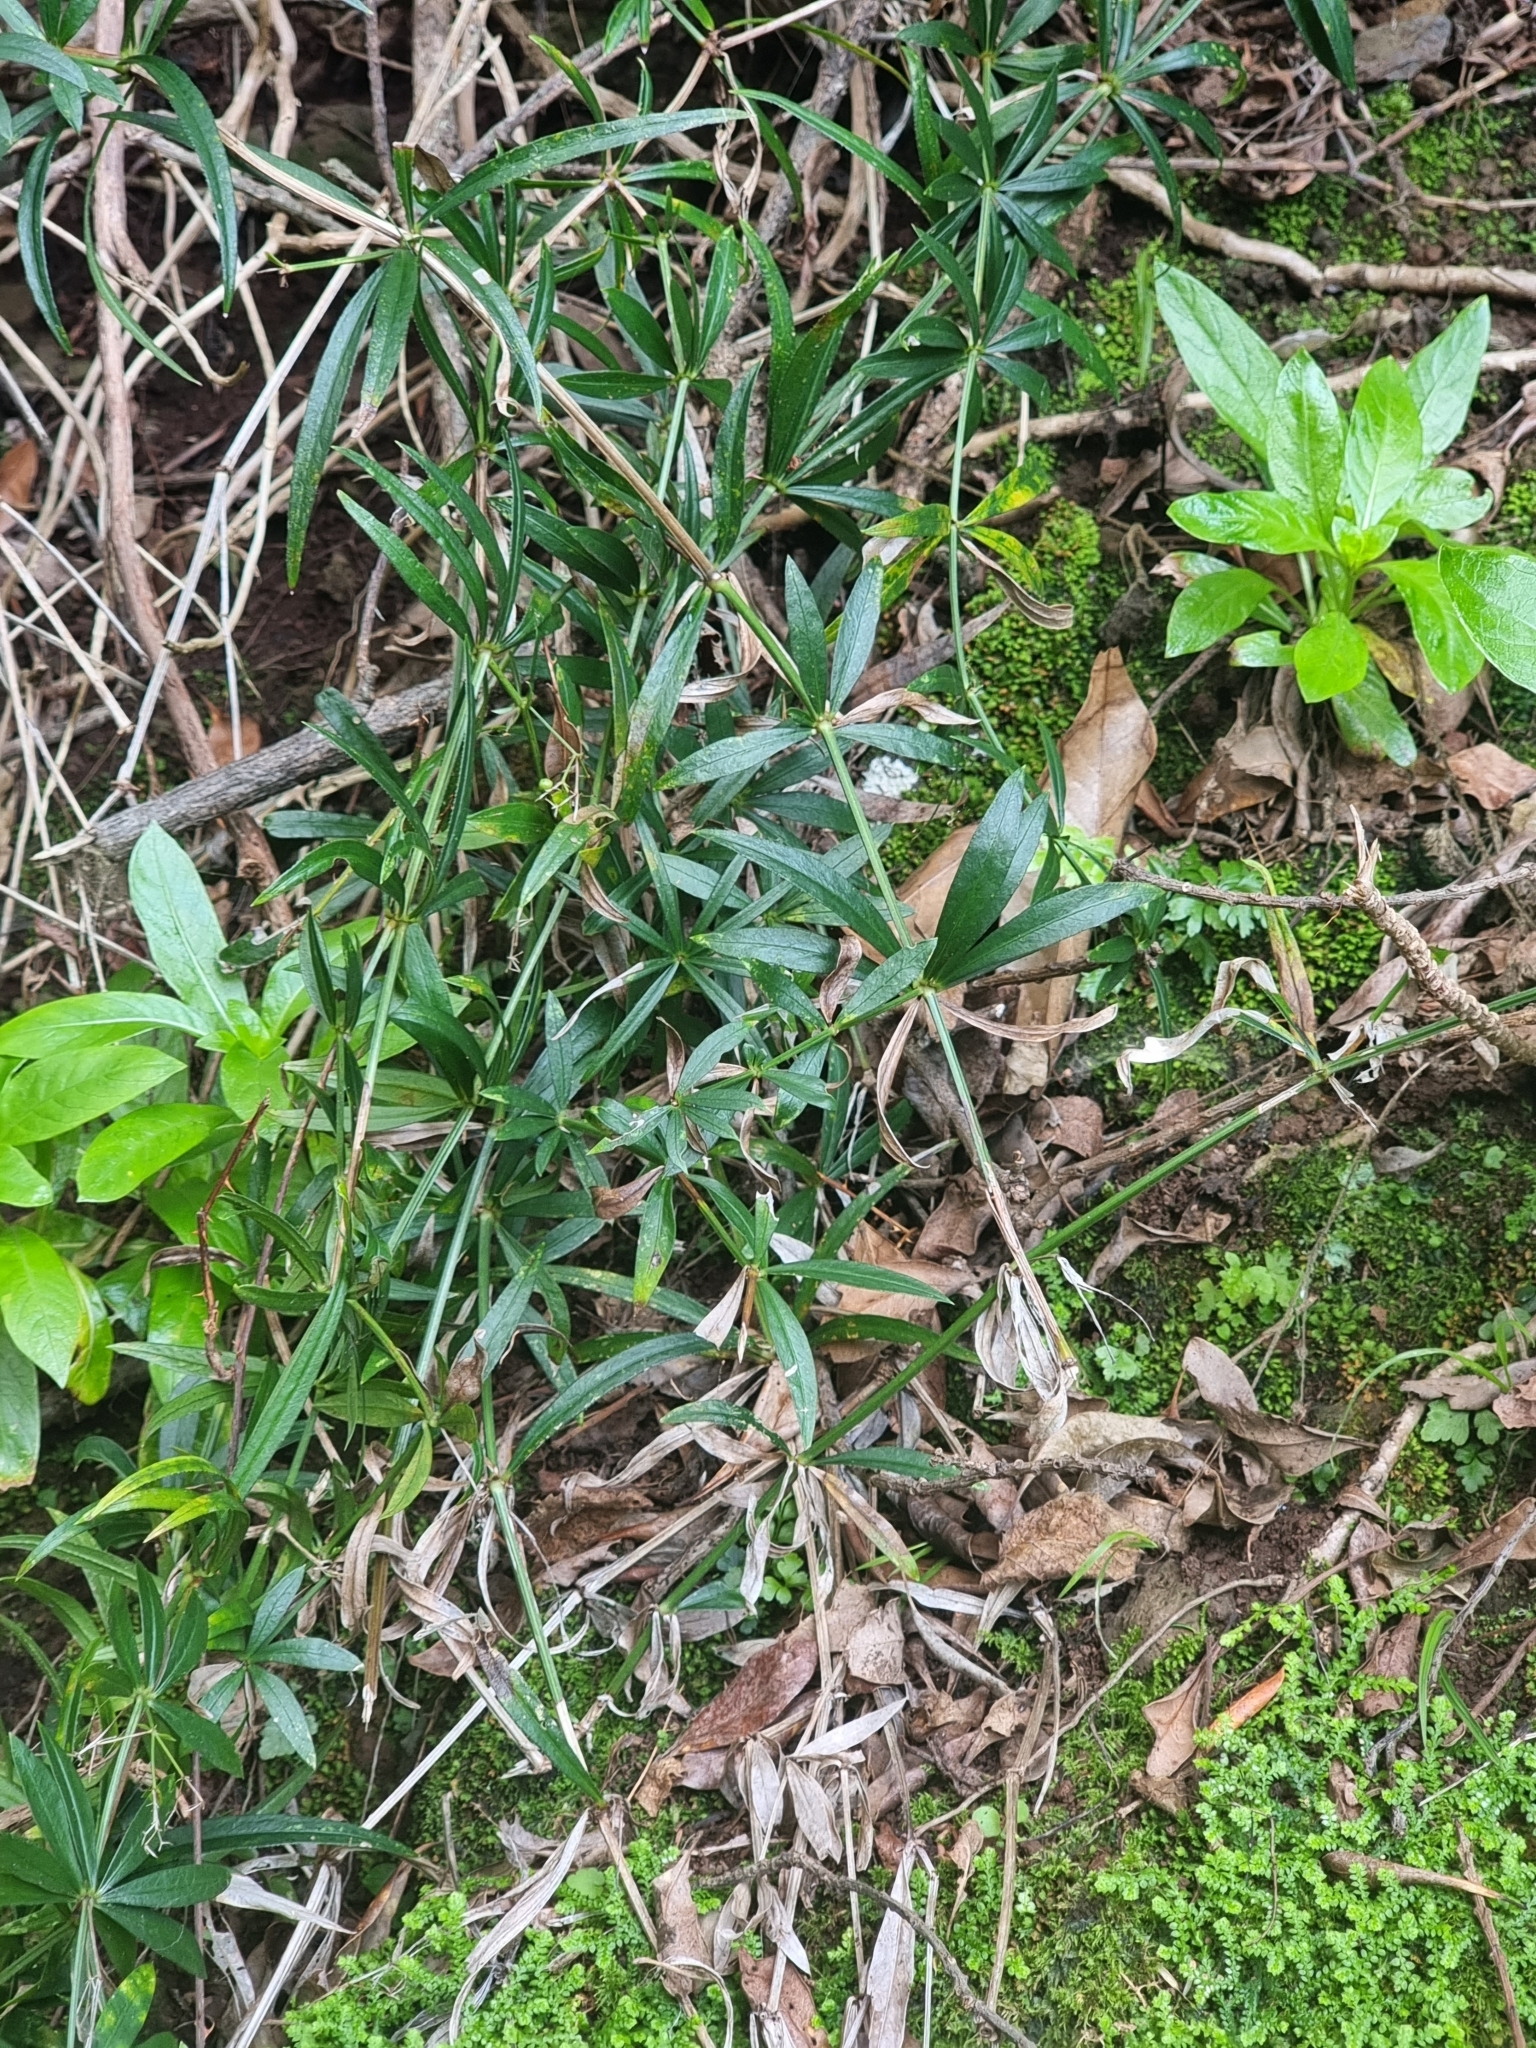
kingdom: Plantae
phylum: Tracheophyta
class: Magnoliopsida
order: Gentianales
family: Rubiaceae
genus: Rubia
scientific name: Rubia occidens
